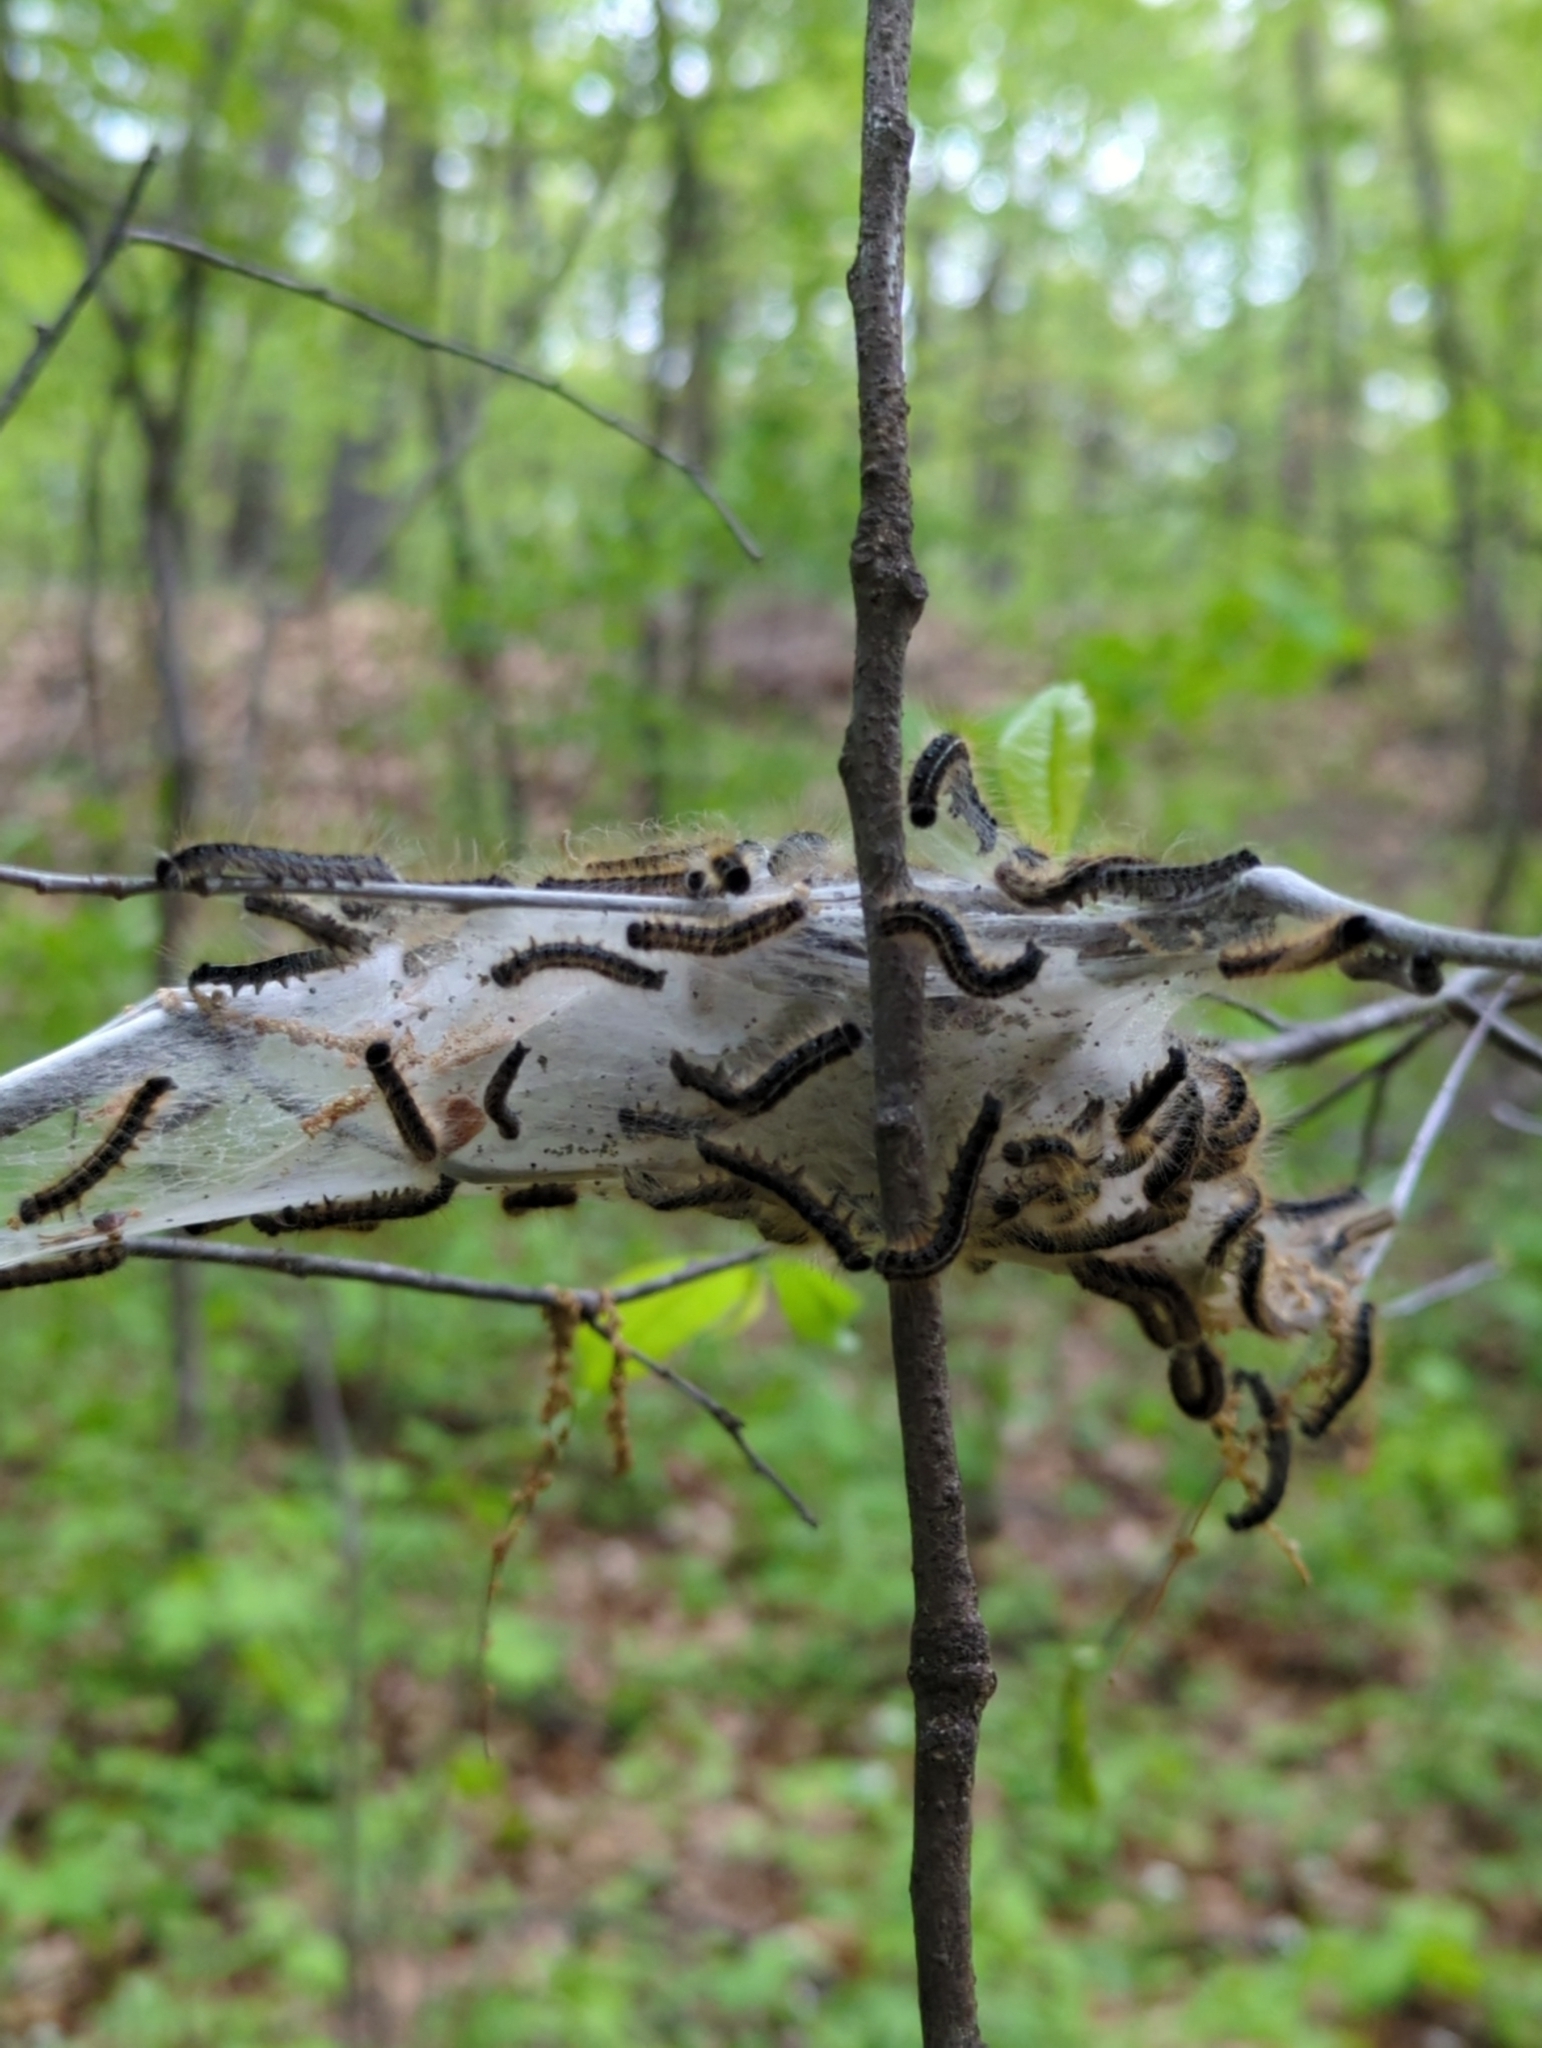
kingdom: Animalia
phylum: Arthropoda
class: Insecta
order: Lepidoptera
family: Lasiocampidae
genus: Malacosoma
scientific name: Malacosoma americana
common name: Eastern tent caterpillar moth
